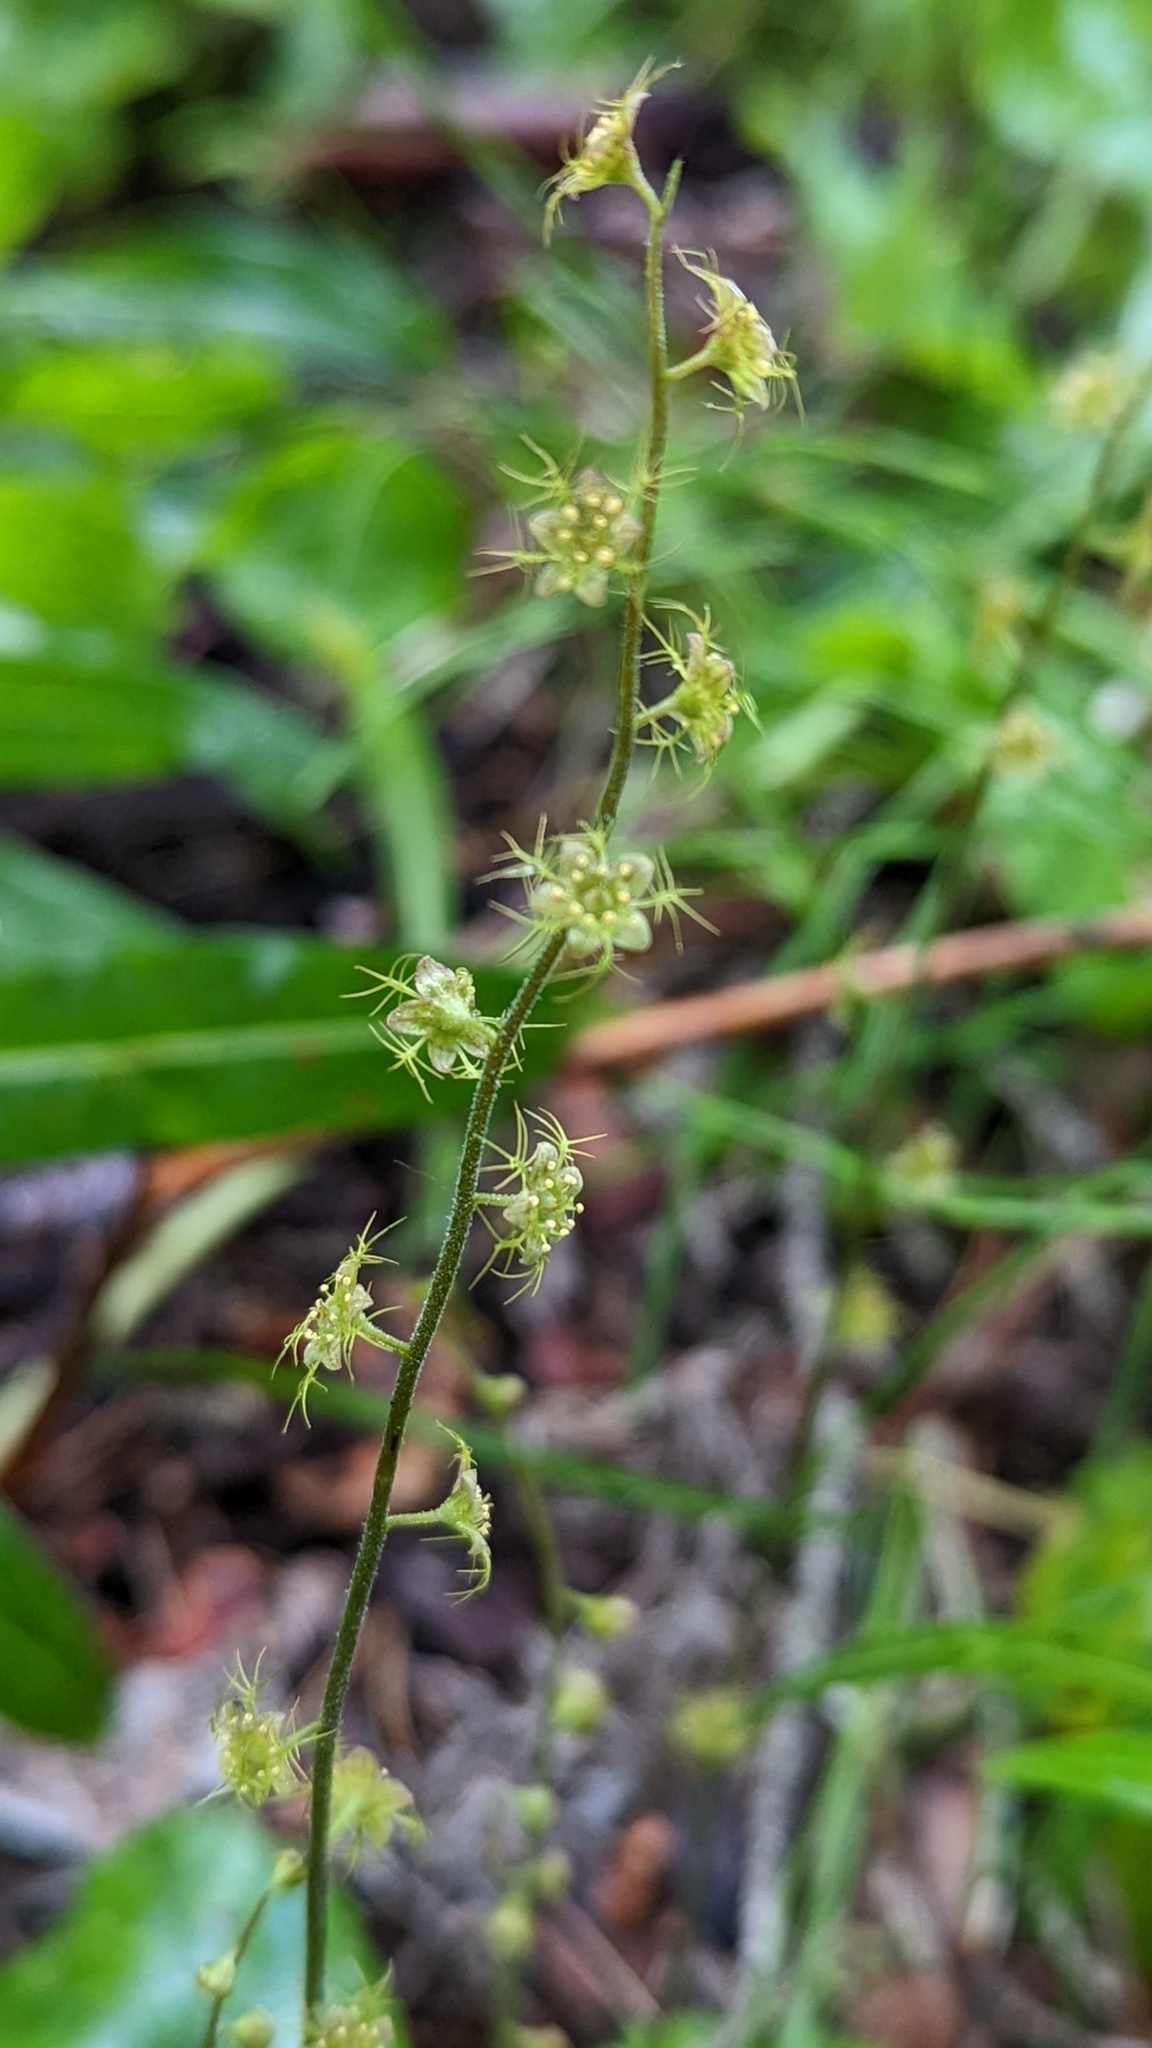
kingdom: Plantae
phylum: Tracheophyta
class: Magnoliopsida
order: Saxifragales
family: Saxifragaceae
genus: Mitella
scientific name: Mitella nuda
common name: Bare-stemmed bishop's-cap
